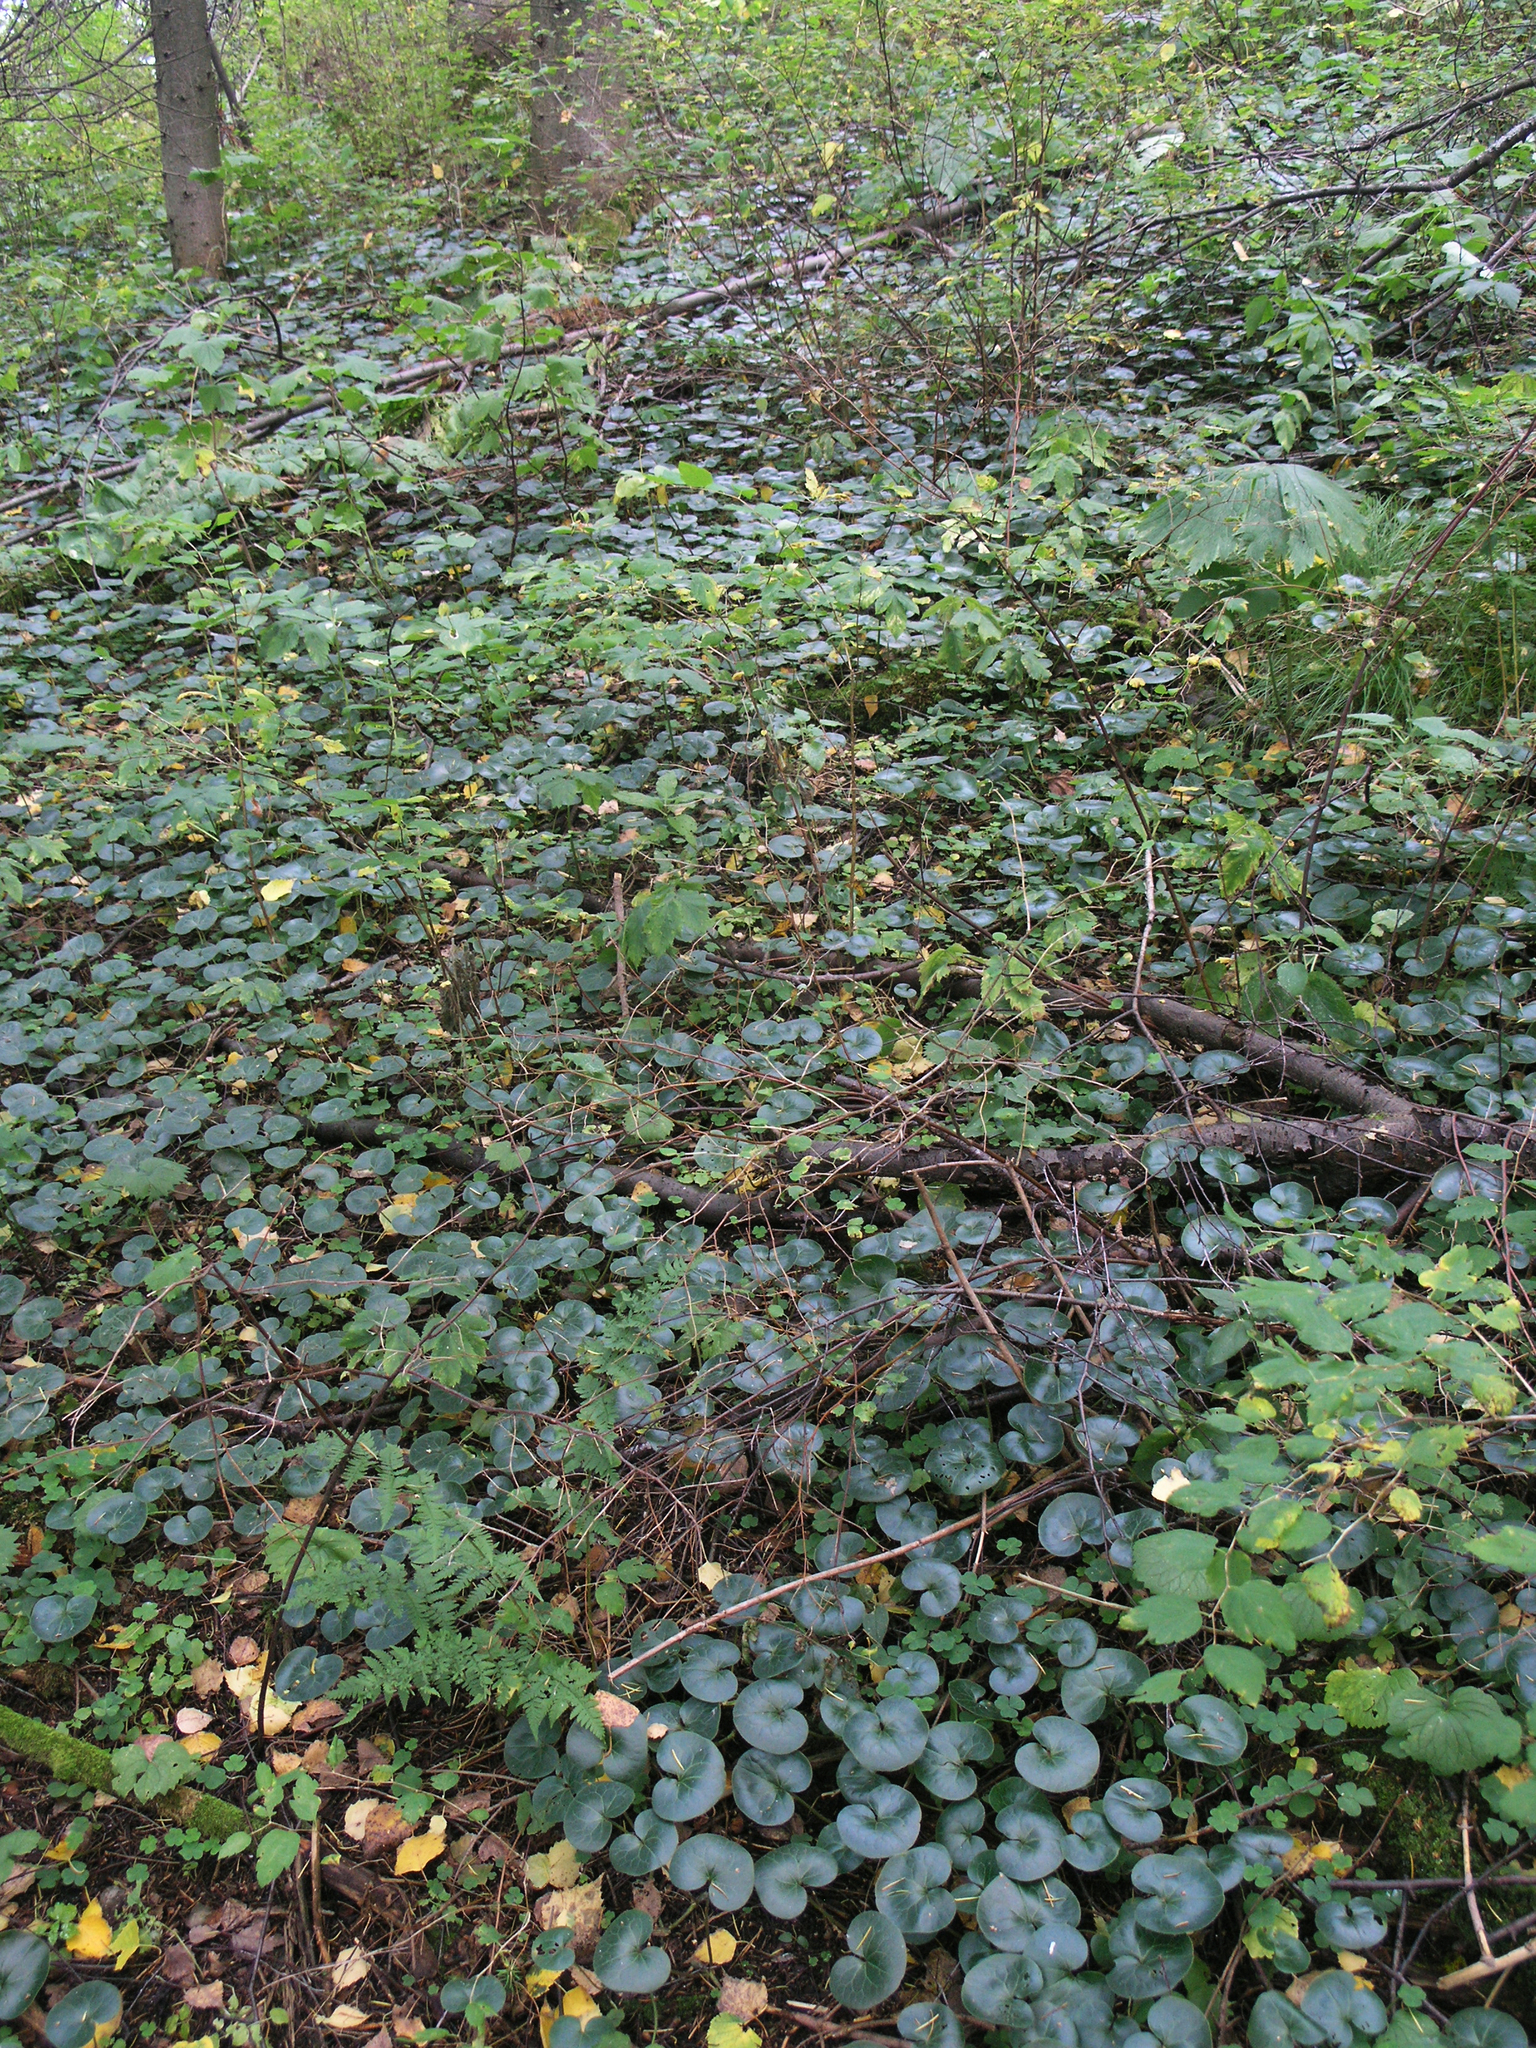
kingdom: Plantae
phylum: Tracheophyta
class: Magnoliopsida
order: Piperales
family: Aristolochiaceae
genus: Asarum
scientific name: Asarum europaeum
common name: Asarabacca
